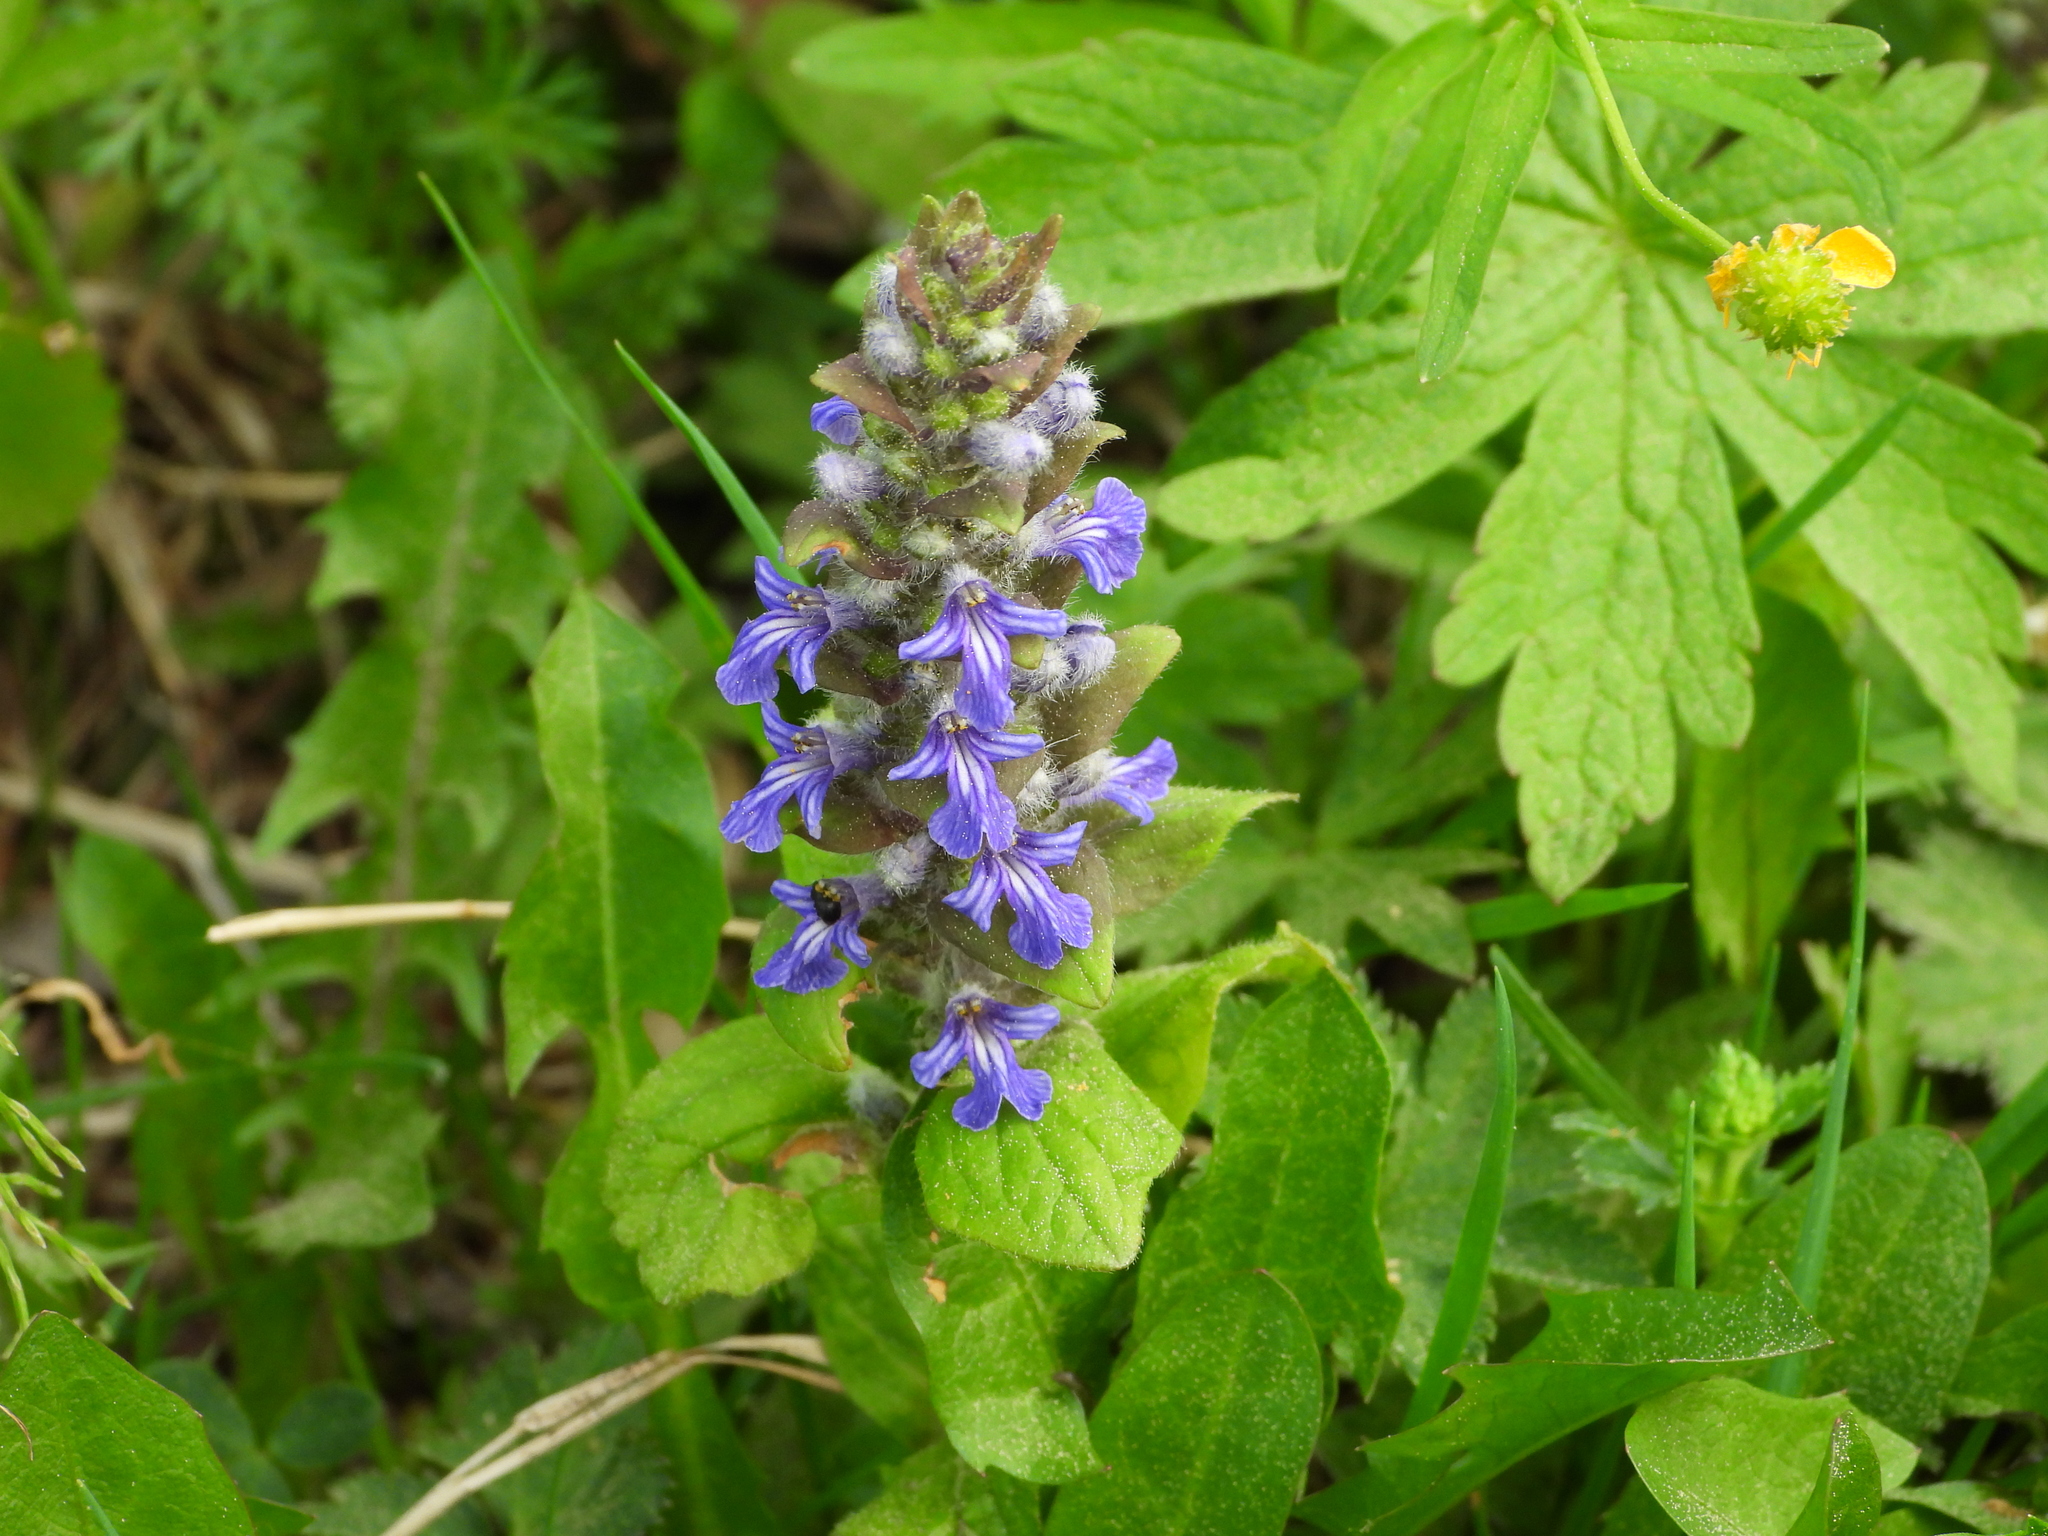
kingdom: Plantae
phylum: Tracheophyta
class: Magnoliopsida
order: Lamiales
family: Lamiaceae
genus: Ajuga
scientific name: Ajuga reptans
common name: Bugle
